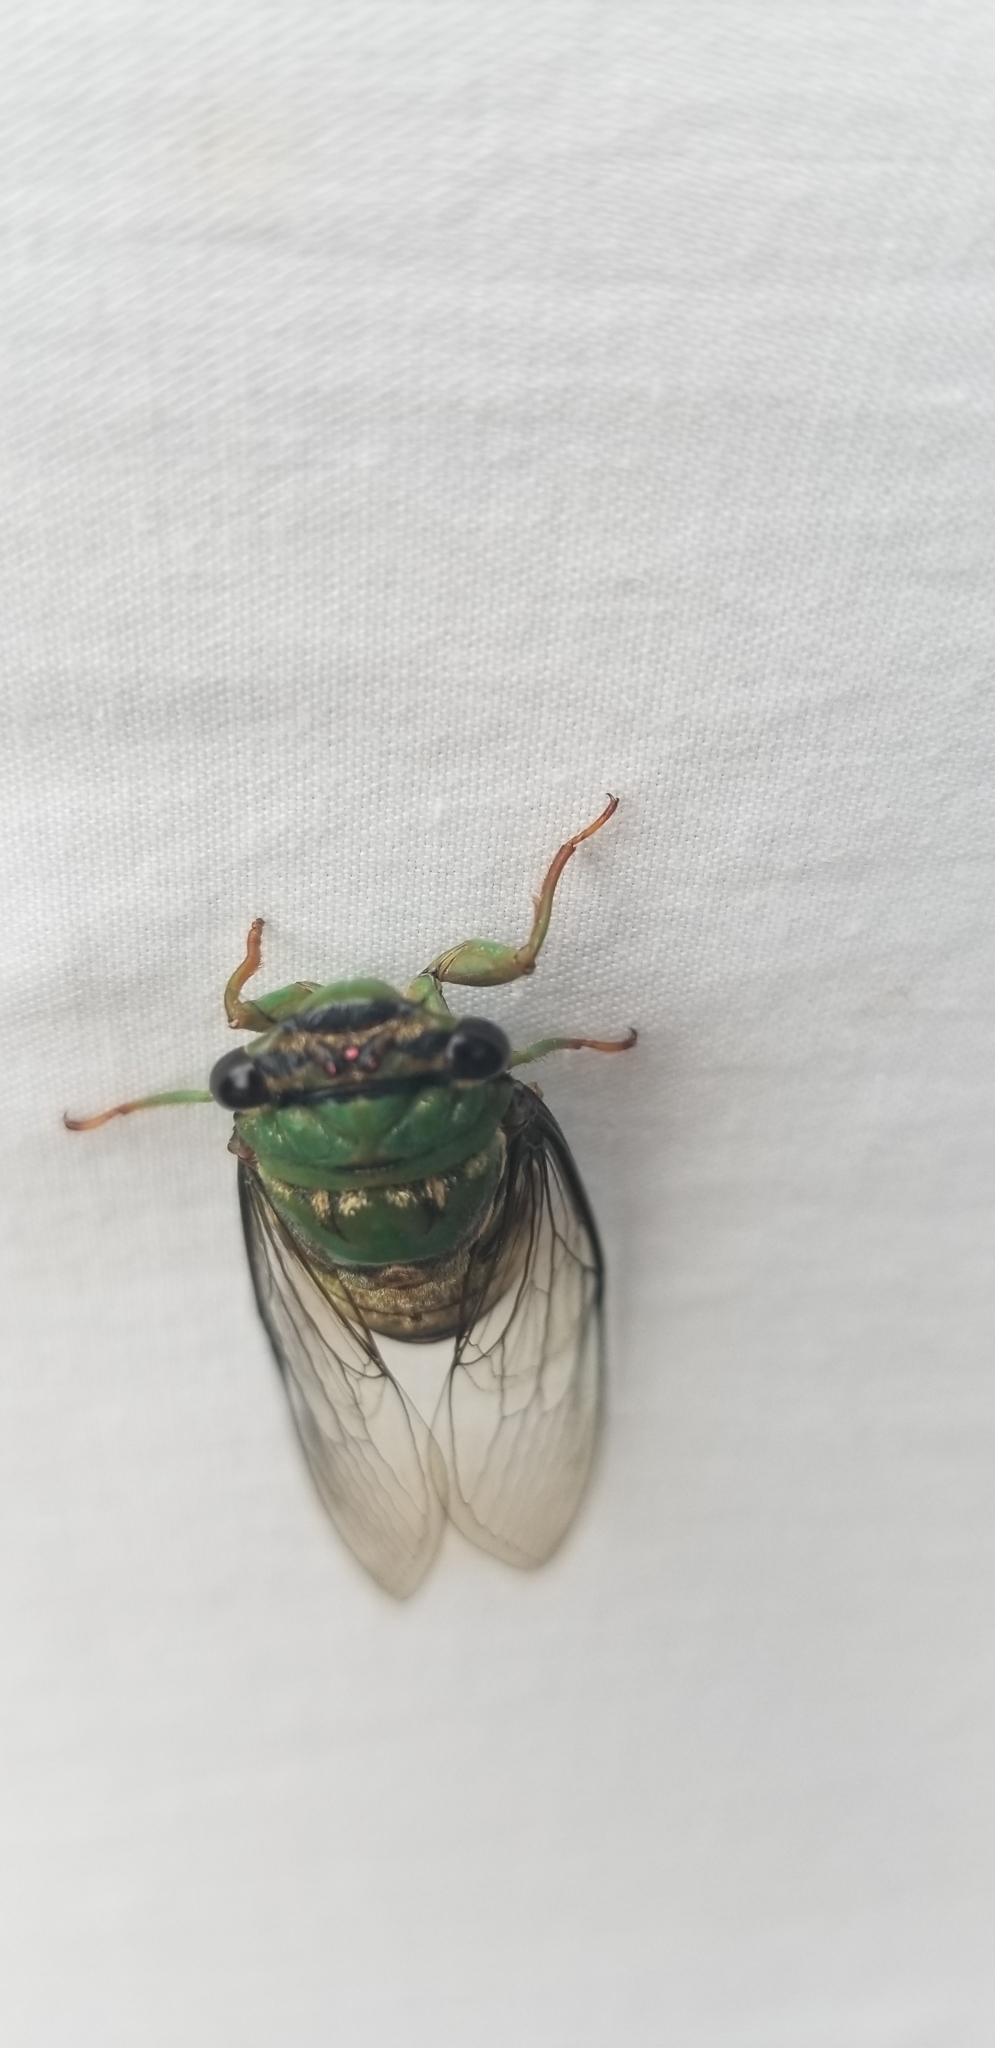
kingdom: Animalia
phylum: Arthropoda
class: Insecta
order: Hemiptera
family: Cicadidae
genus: Guyalna
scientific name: Guyalna distanti
